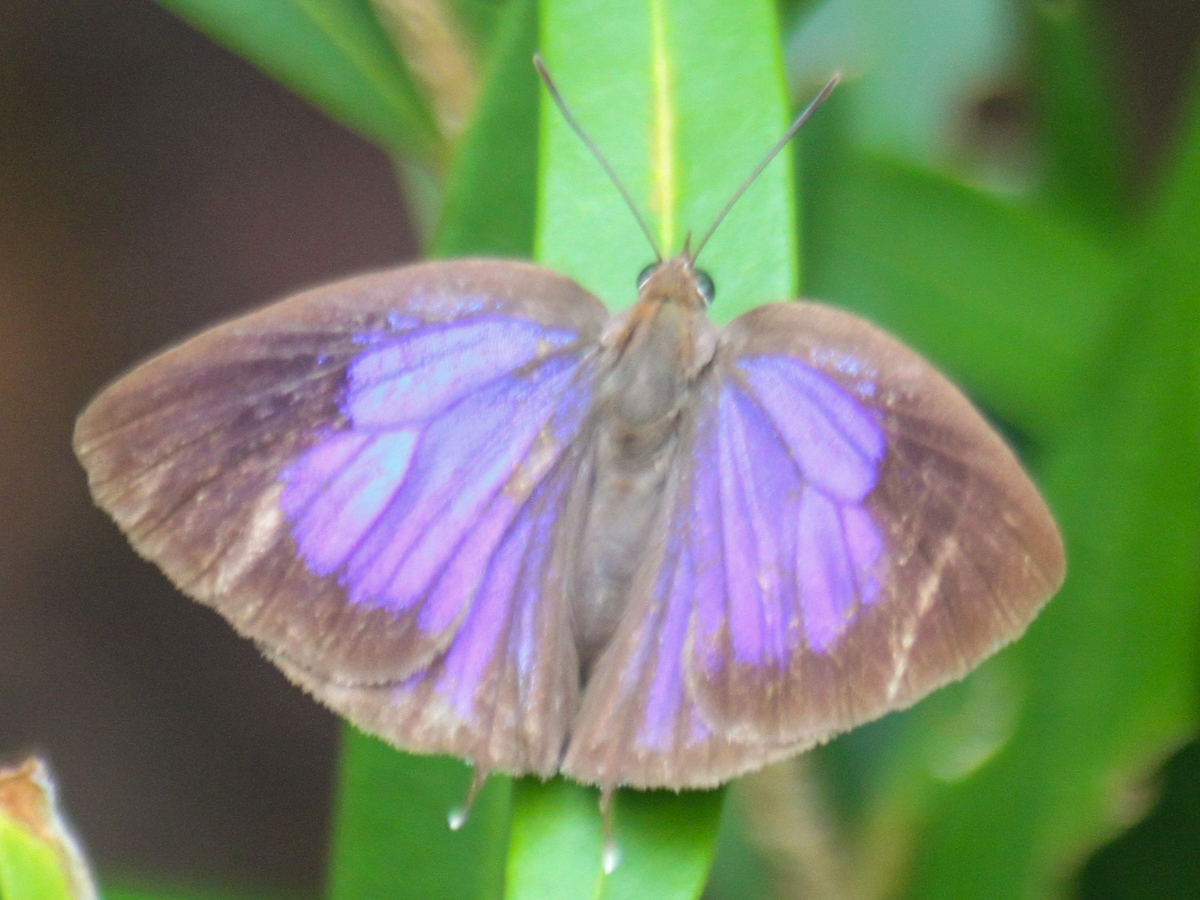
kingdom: Animalia
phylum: Arthropoda
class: Insecta
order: Lepidoptera
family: Lycaenidae
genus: Arhopala
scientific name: Arhopala alitaeus
